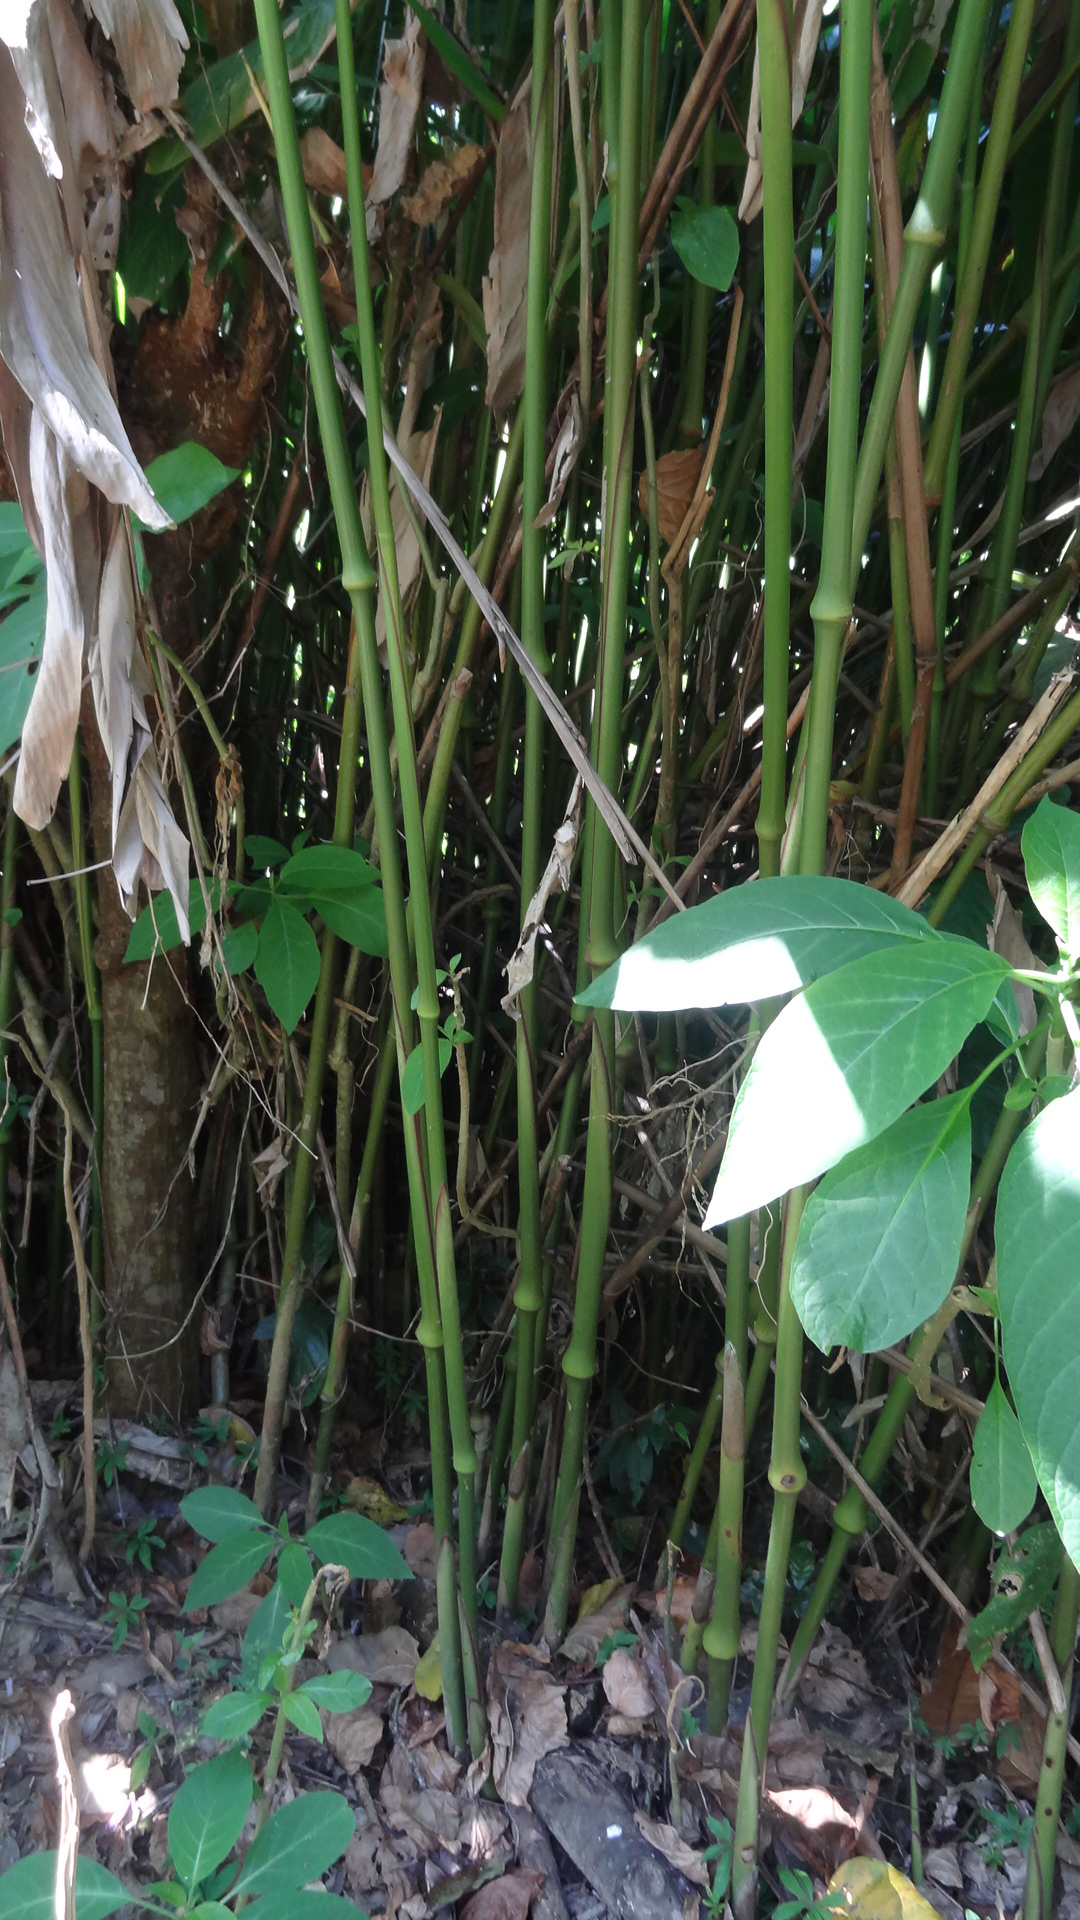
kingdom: Plantae
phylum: Tracheophyta
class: Liliopsida
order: Zingiberales
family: Marantaceae
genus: Indianthus
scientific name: Indianthus virgatus
